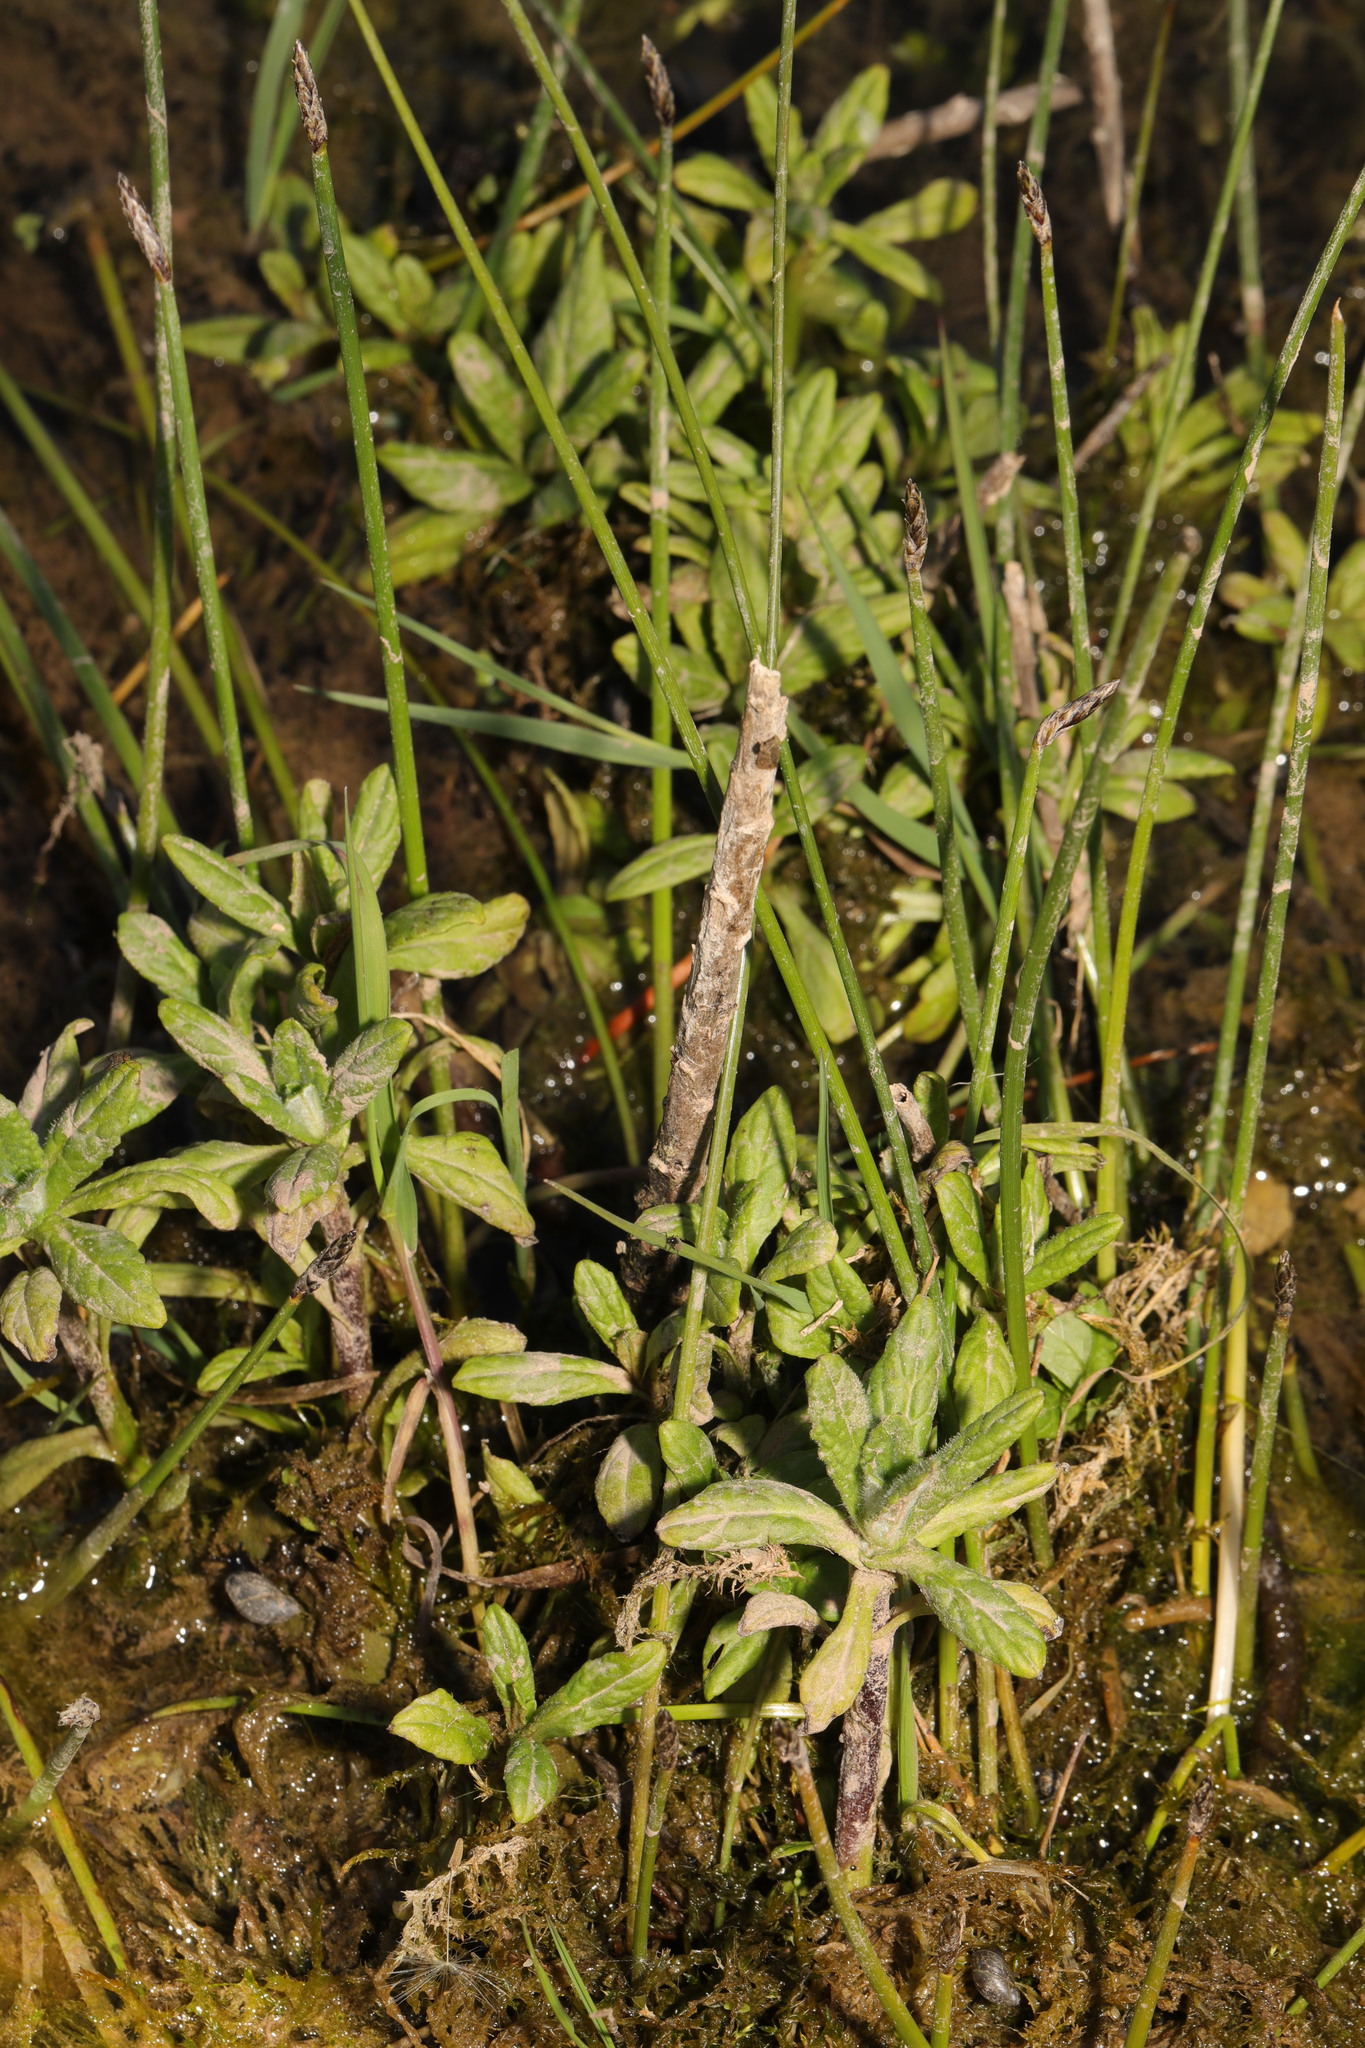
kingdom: Plantae
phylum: Tracheophyta
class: Magnoliopsida
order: Asterales
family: Asteraceae
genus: Pulicaria
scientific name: Pulicaria dysenterica
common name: Common fleabane
